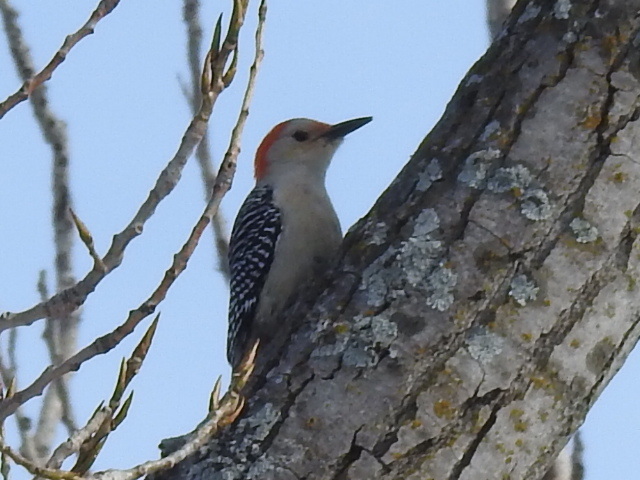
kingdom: Animalia
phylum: Chordata
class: Aves
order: Piciformes
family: Picidae
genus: Melanerpes
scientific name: Melanerpes carolinus
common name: Red-bellied woodpecker
